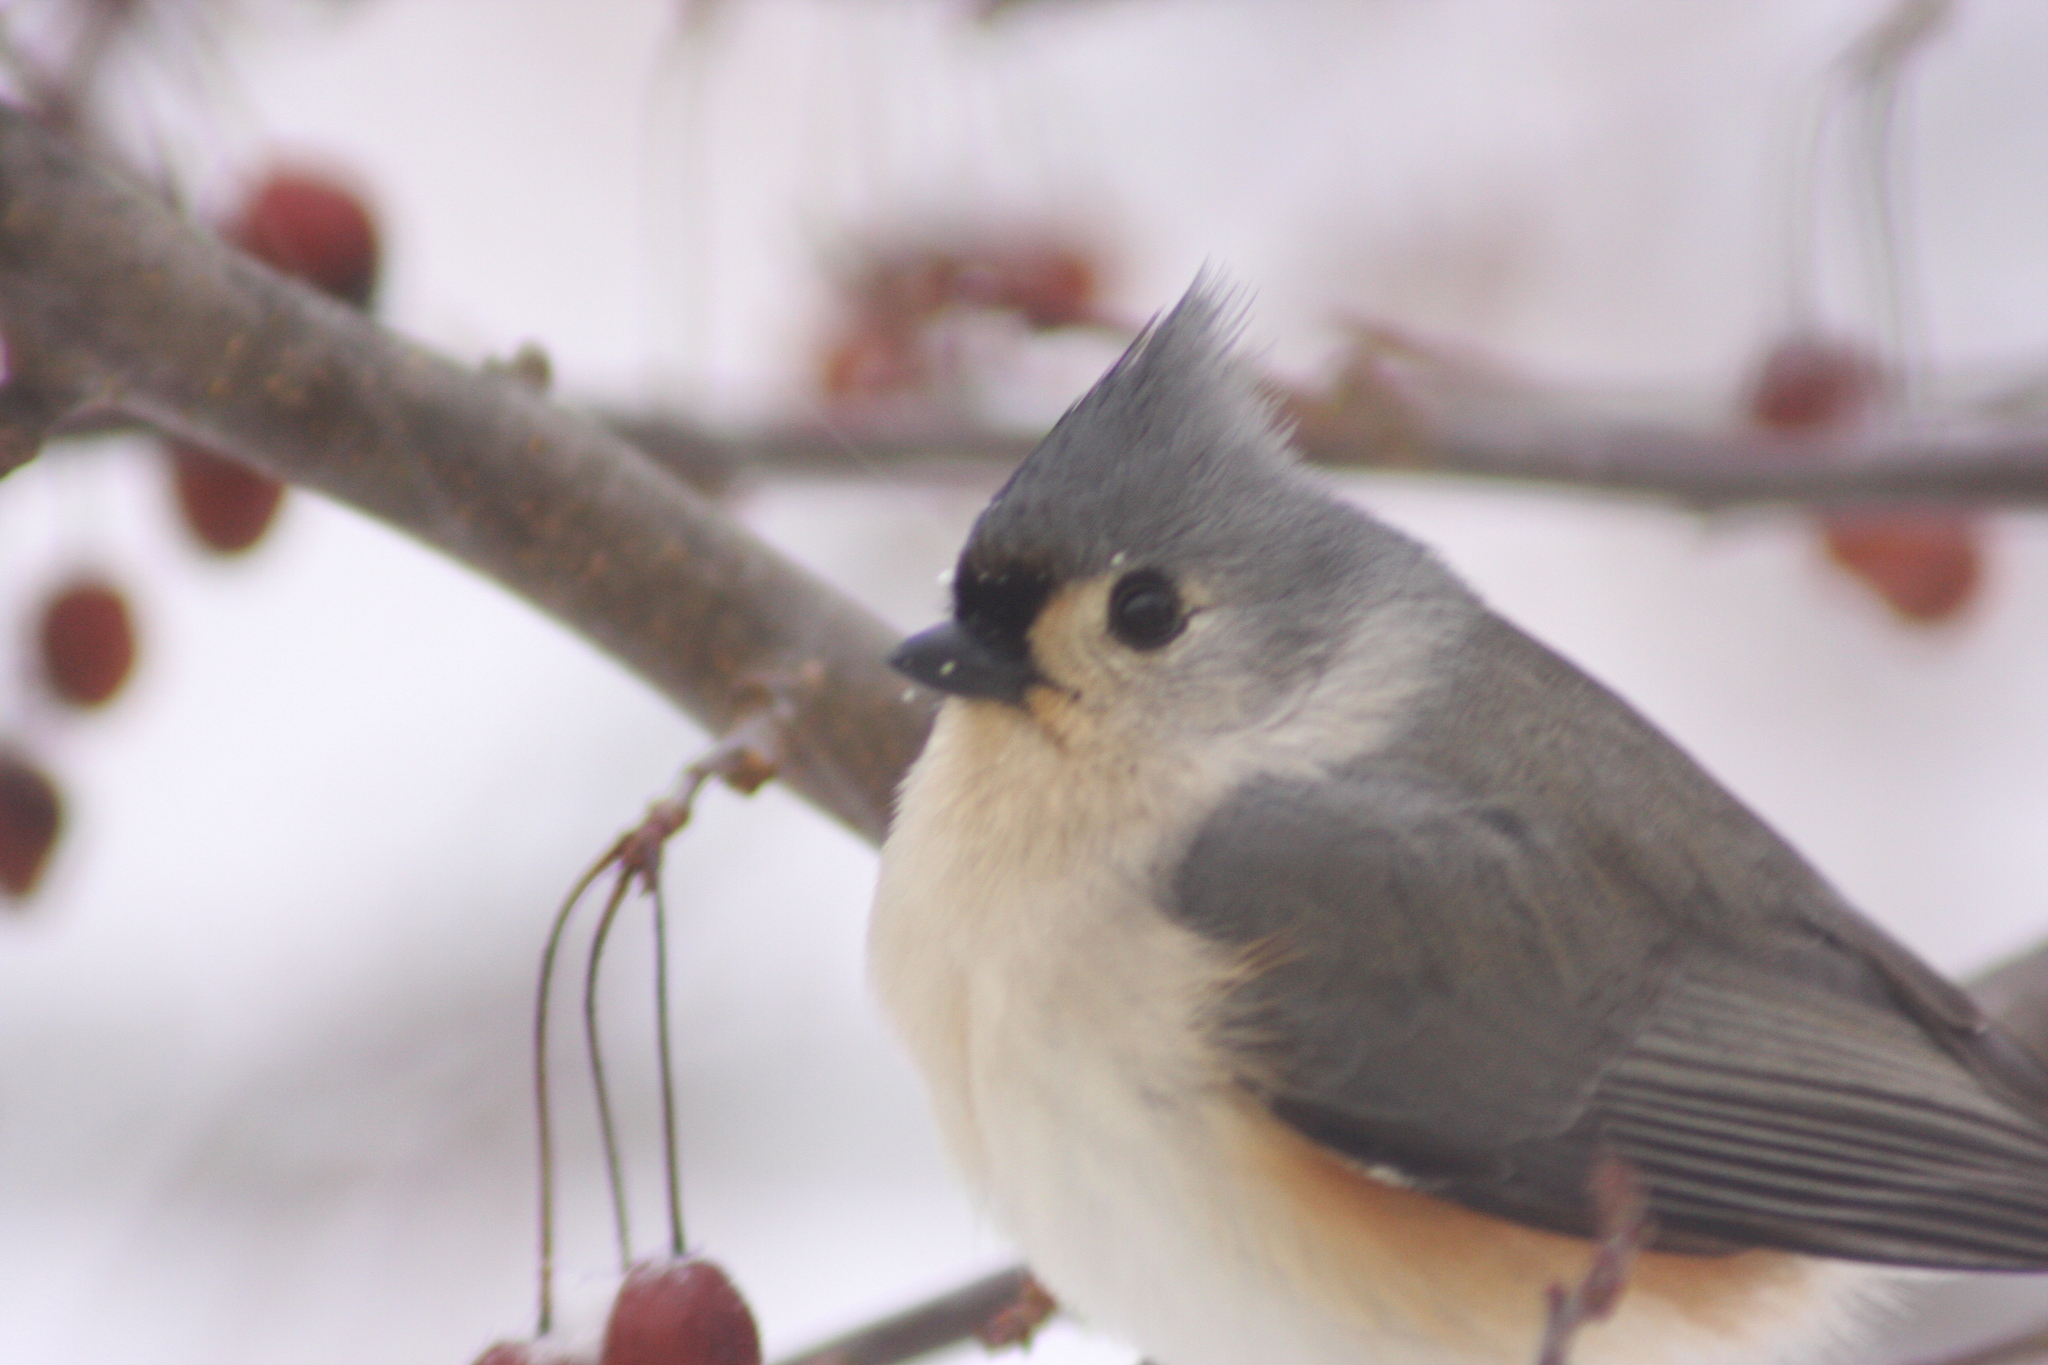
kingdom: Animalia
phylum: Chordata
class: Aves
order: Passeriformes
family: Paridae
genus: Baeolophus
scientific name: Baeolophus bicolor
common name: Tufted titmouse
